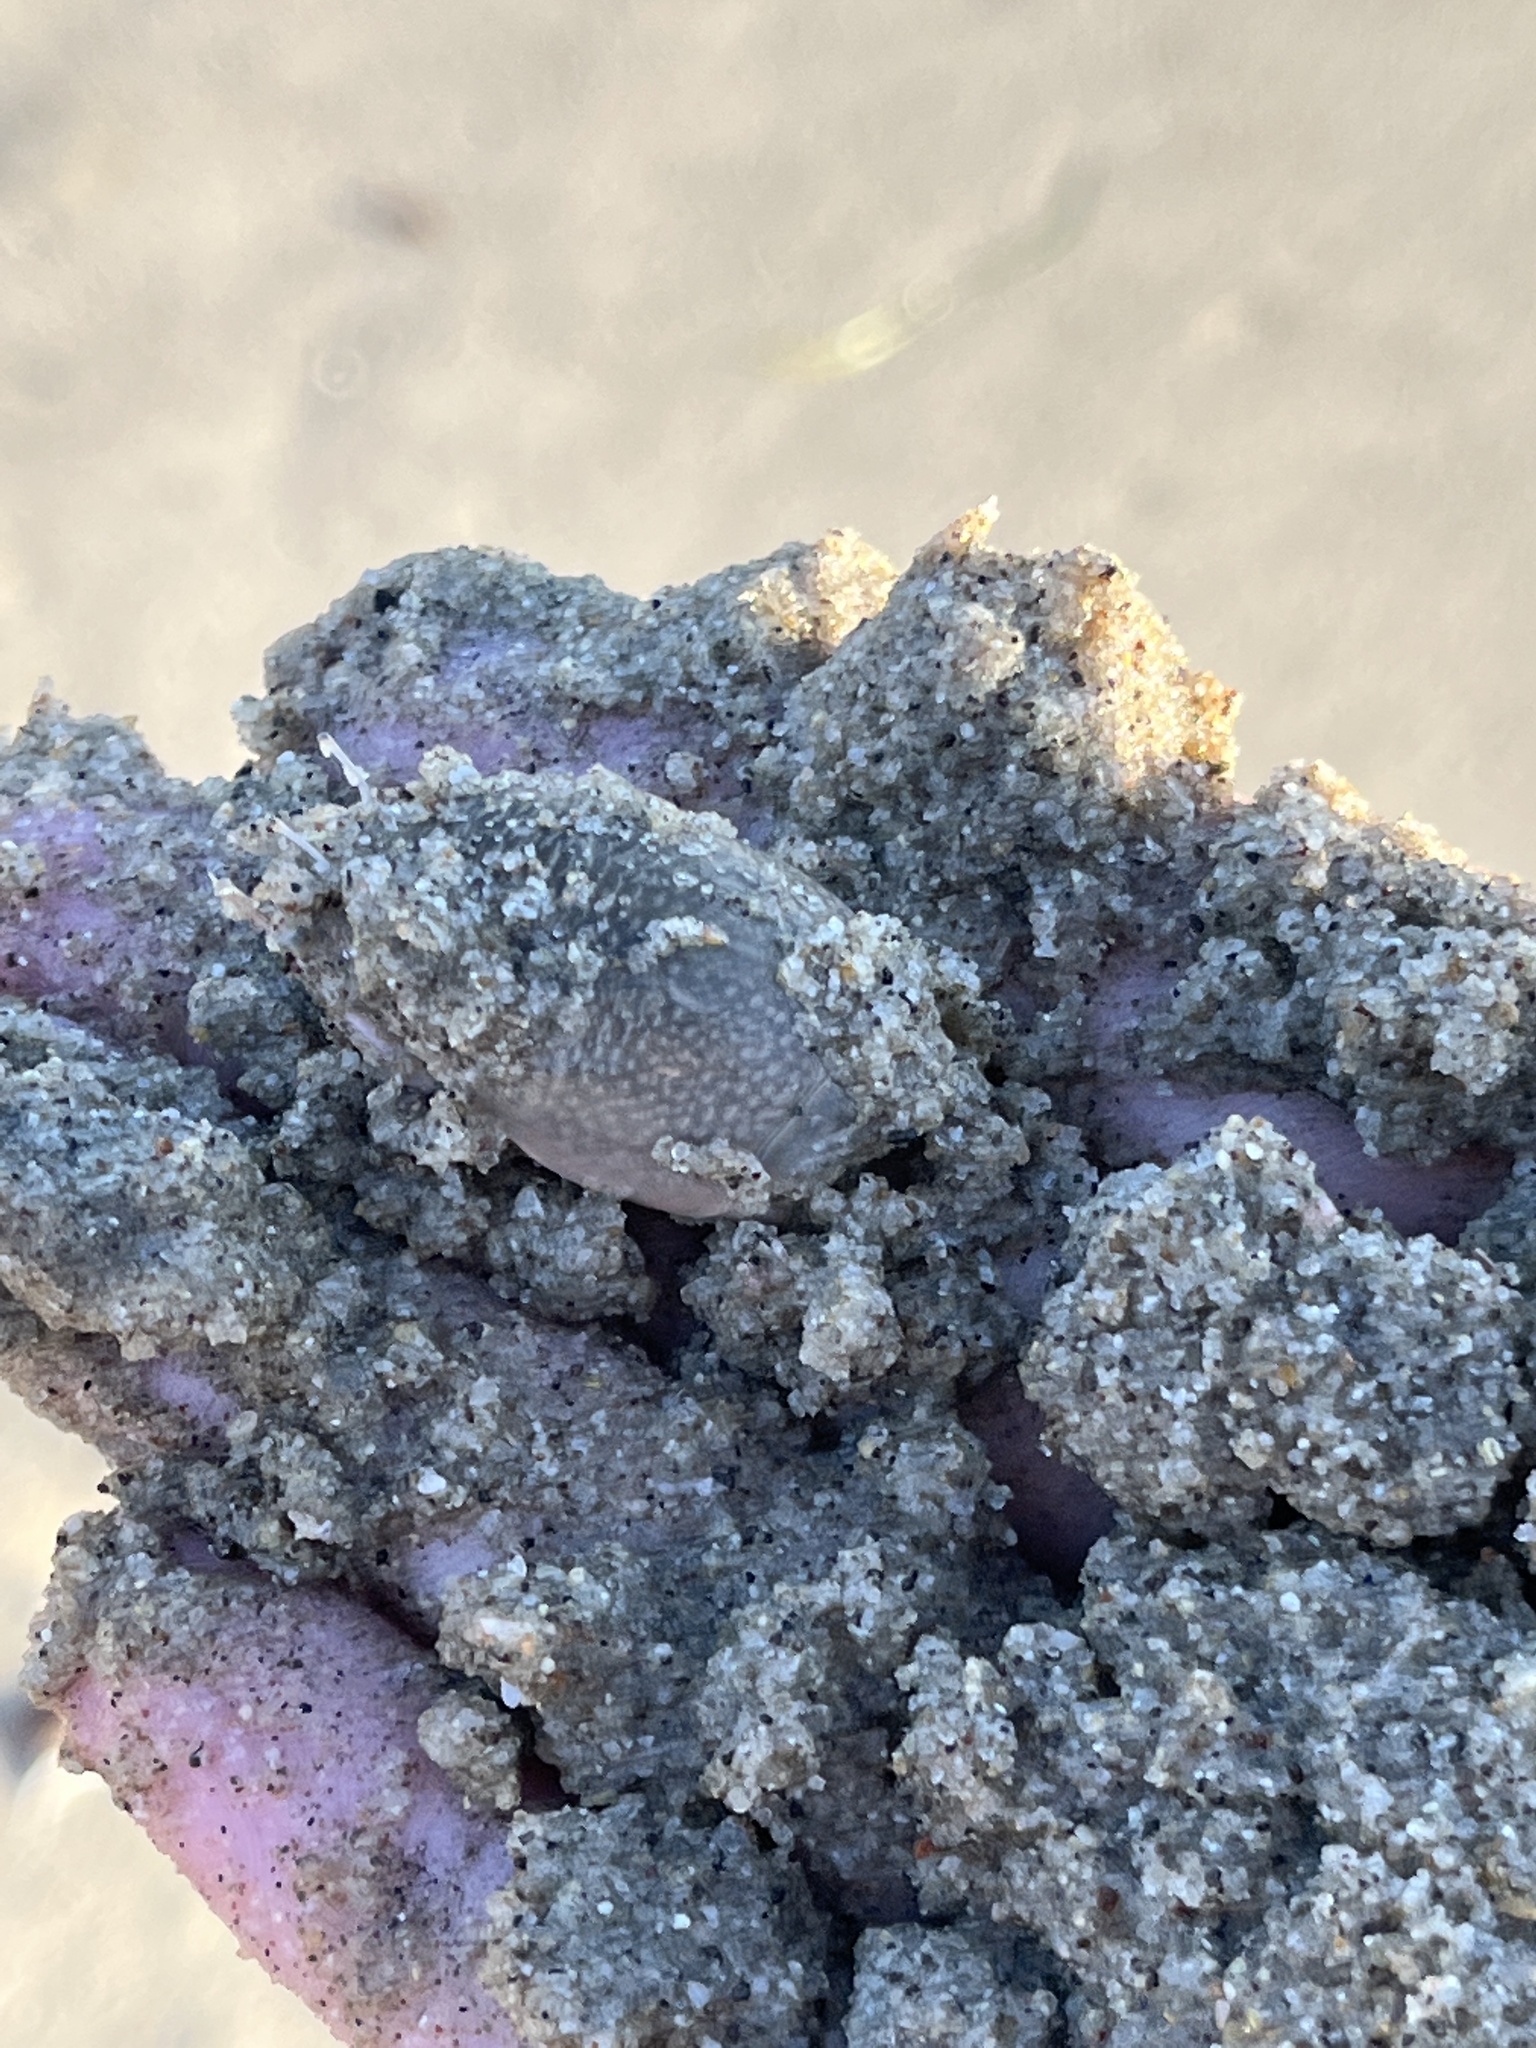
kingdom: Animalia
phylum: Arthropoda
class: Malacostraca
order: Decapoda
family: Hippidae
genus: Emerita
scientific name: Emerita analoga
